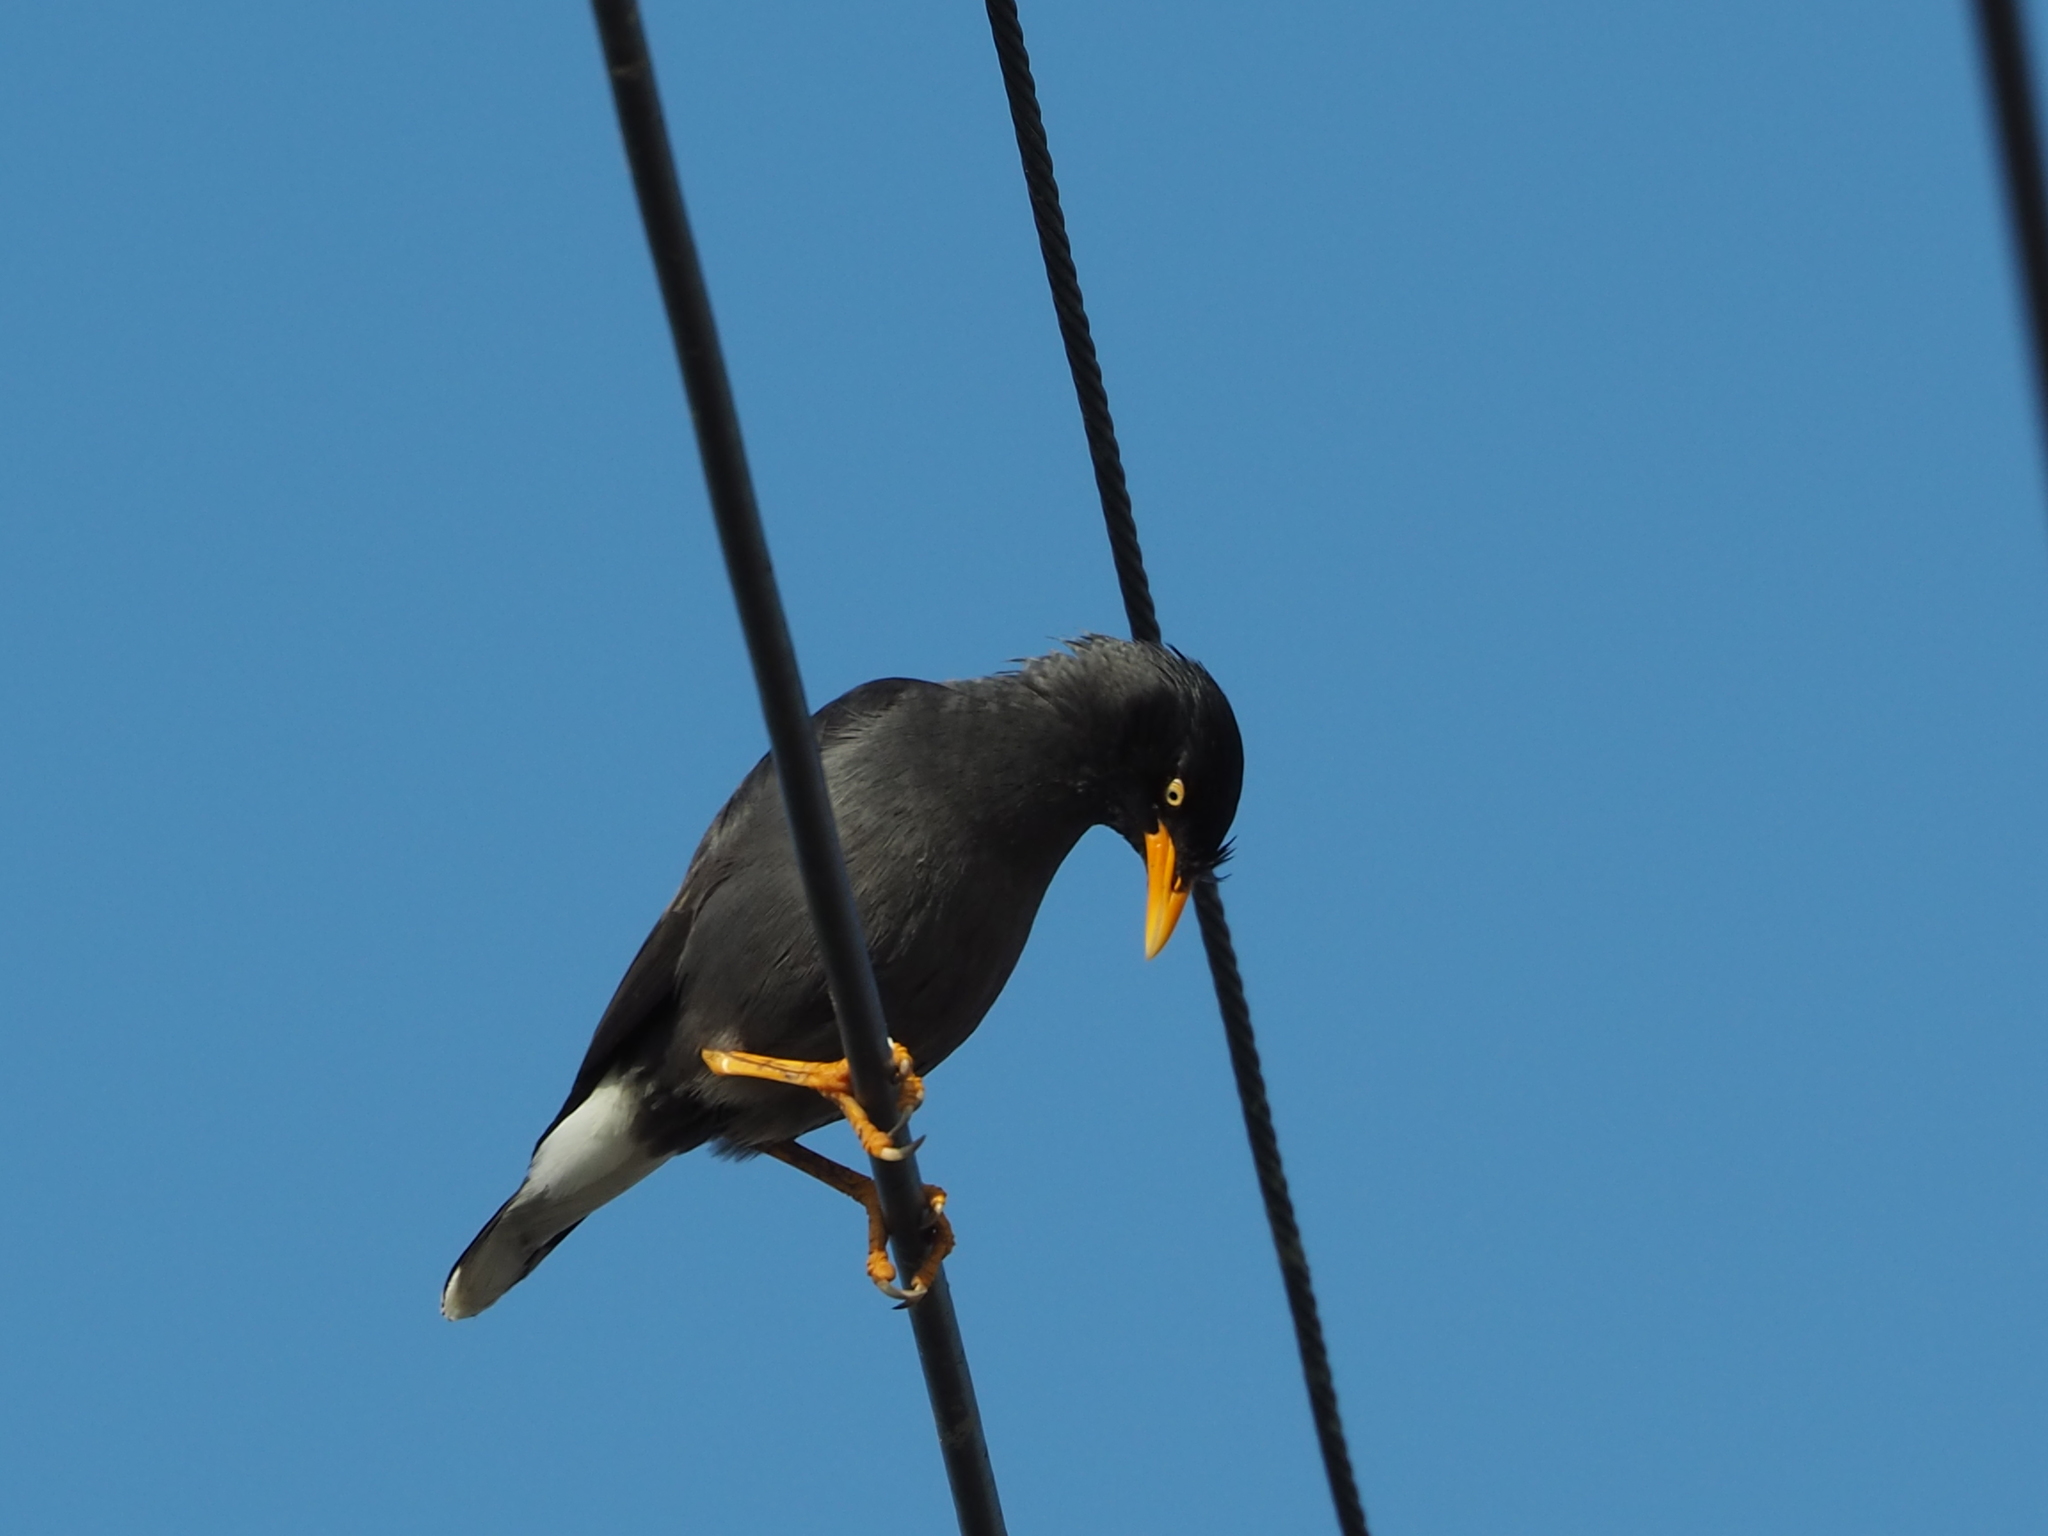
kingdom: Animalia
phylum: Chordata
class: Aves
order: Passeriformes
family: Sturnidae
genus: Acridotheres
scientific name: Acridotheres javanicus
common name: Javan myna
